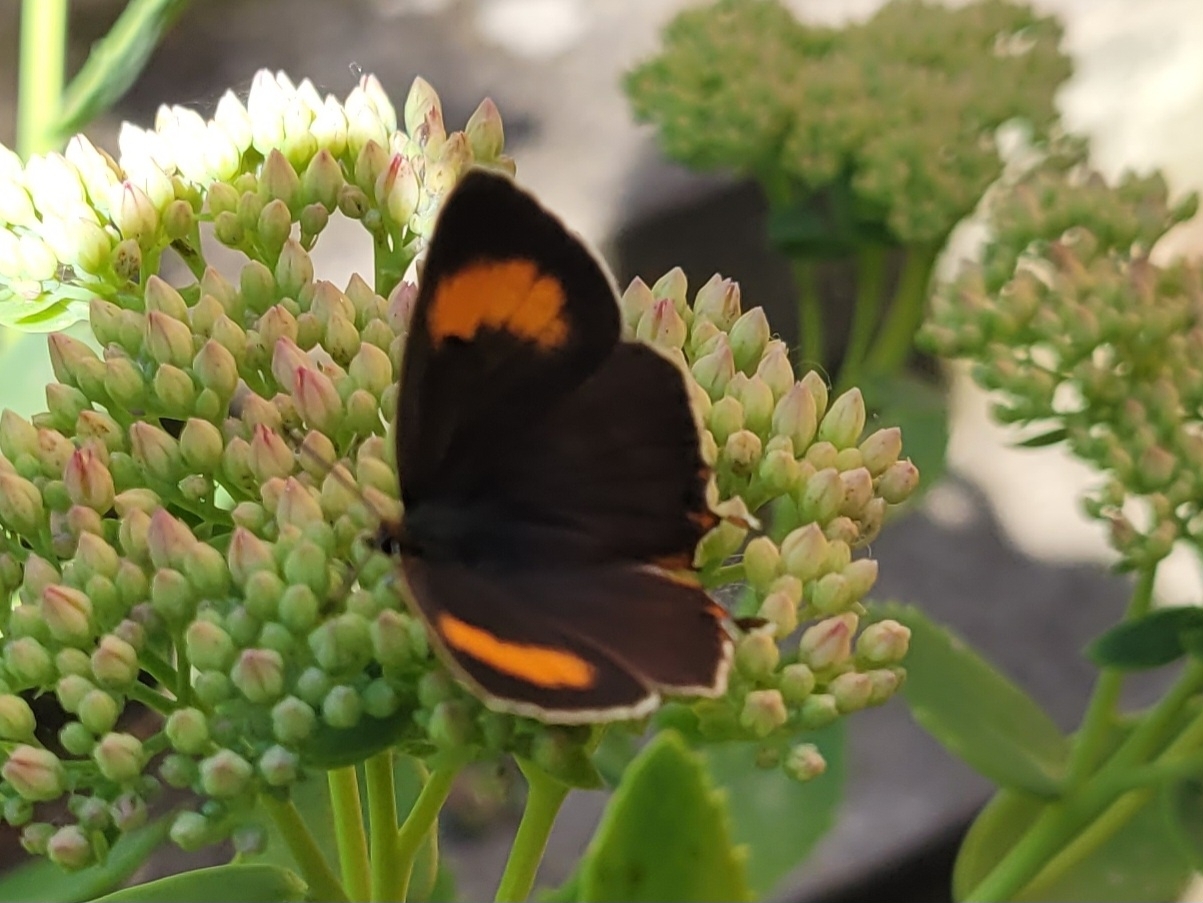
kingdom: Animalia
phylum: Arthropoda
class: Insecta
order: Lepidoptera
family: Lycaenidae
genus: Thecla
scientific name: Thecla betulae
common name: Brown hairstreak
